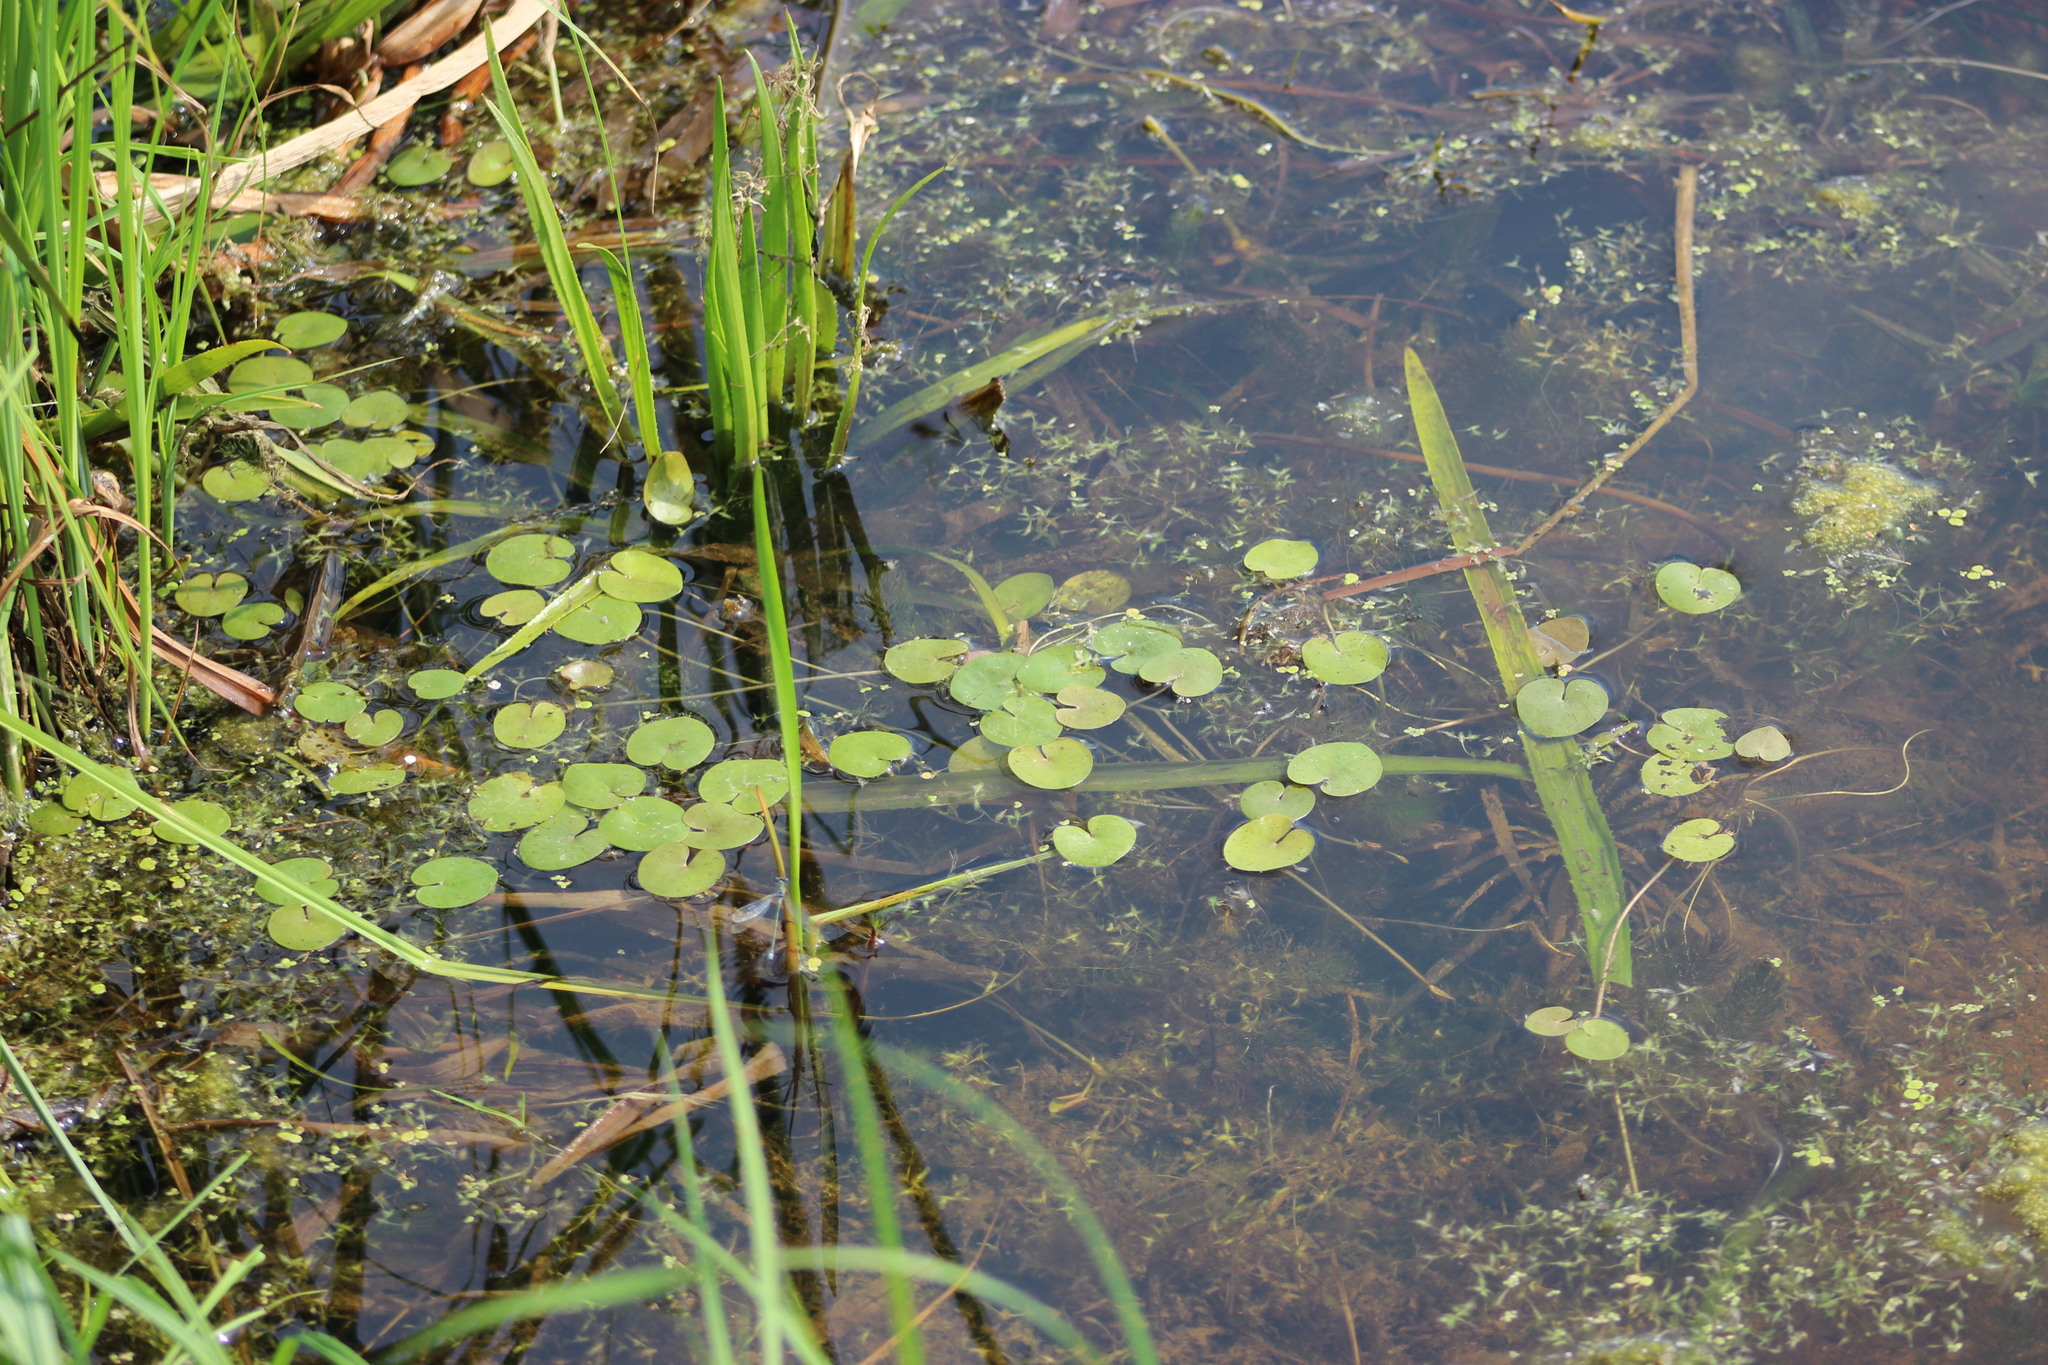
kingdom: Plantae
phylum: Tracheophyta
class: Liliopsida
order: Alismatales
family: Hydrocharitaceae
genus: Hydrocharis
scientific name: Hydrocharis morsus-ranae
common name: Frogbit
